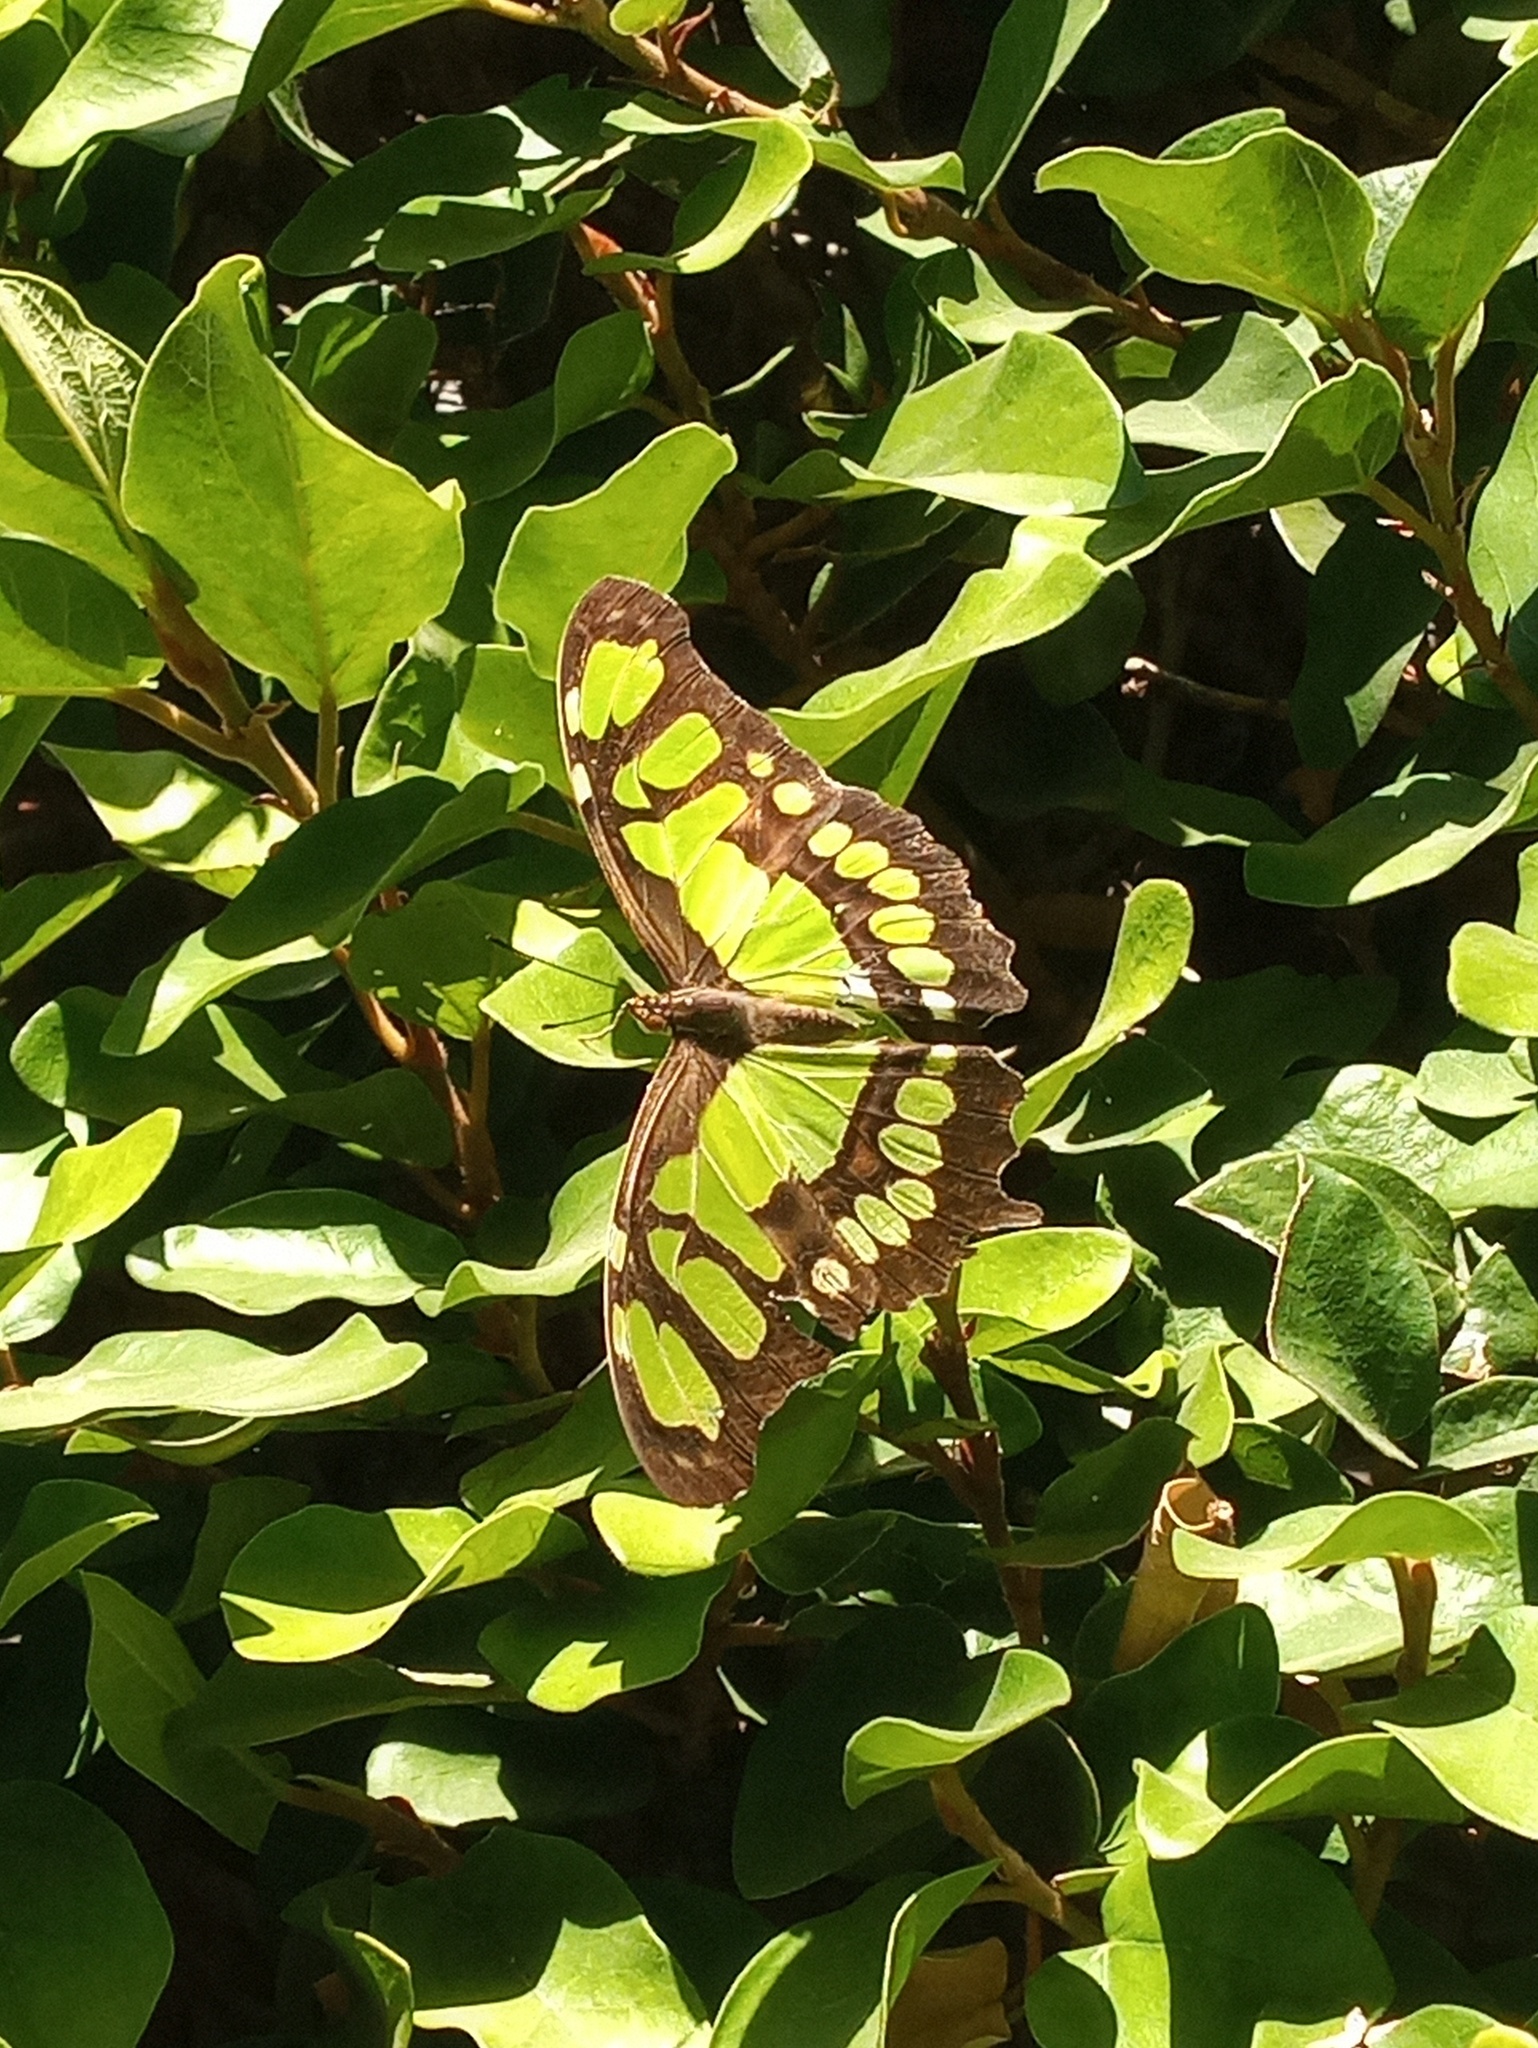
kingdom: Animalia
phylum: Arthropoda
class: Insecta
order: Lepidoptera
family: Nymphalidae
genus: Siproeta
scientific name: Siproeta stelenes
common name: Malachite
